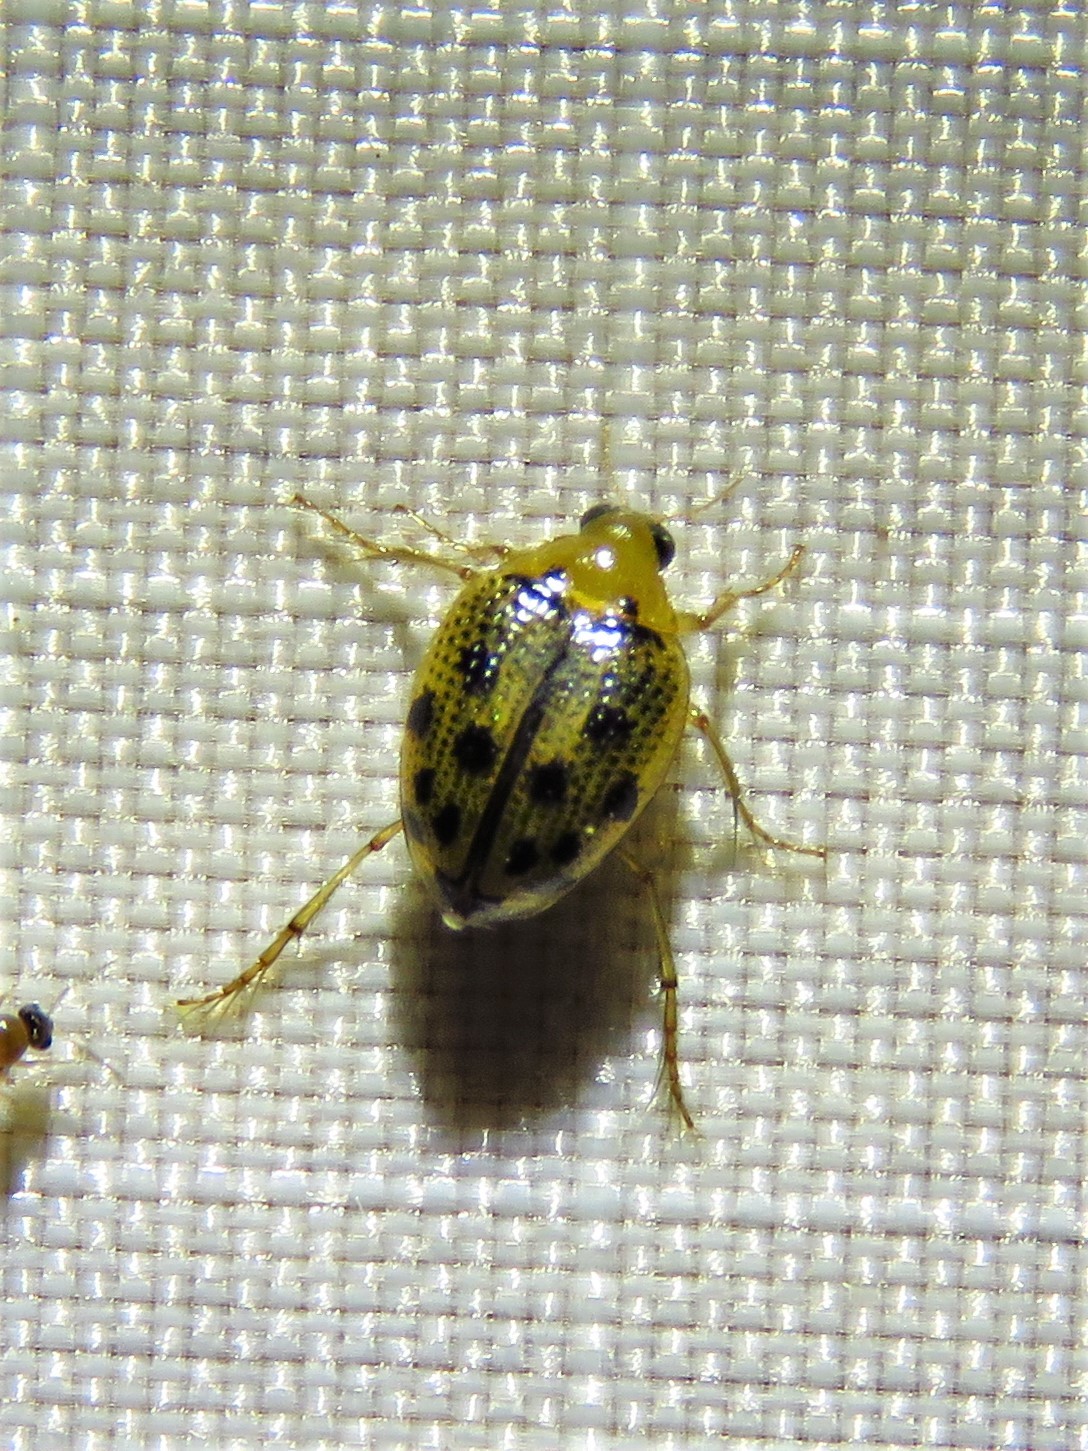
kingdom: Animalia
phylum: Arthropoda
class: Insecta
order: Coleoptera
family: Haliplidae
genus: Peltodytes
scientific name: Peltodytes litoralis
